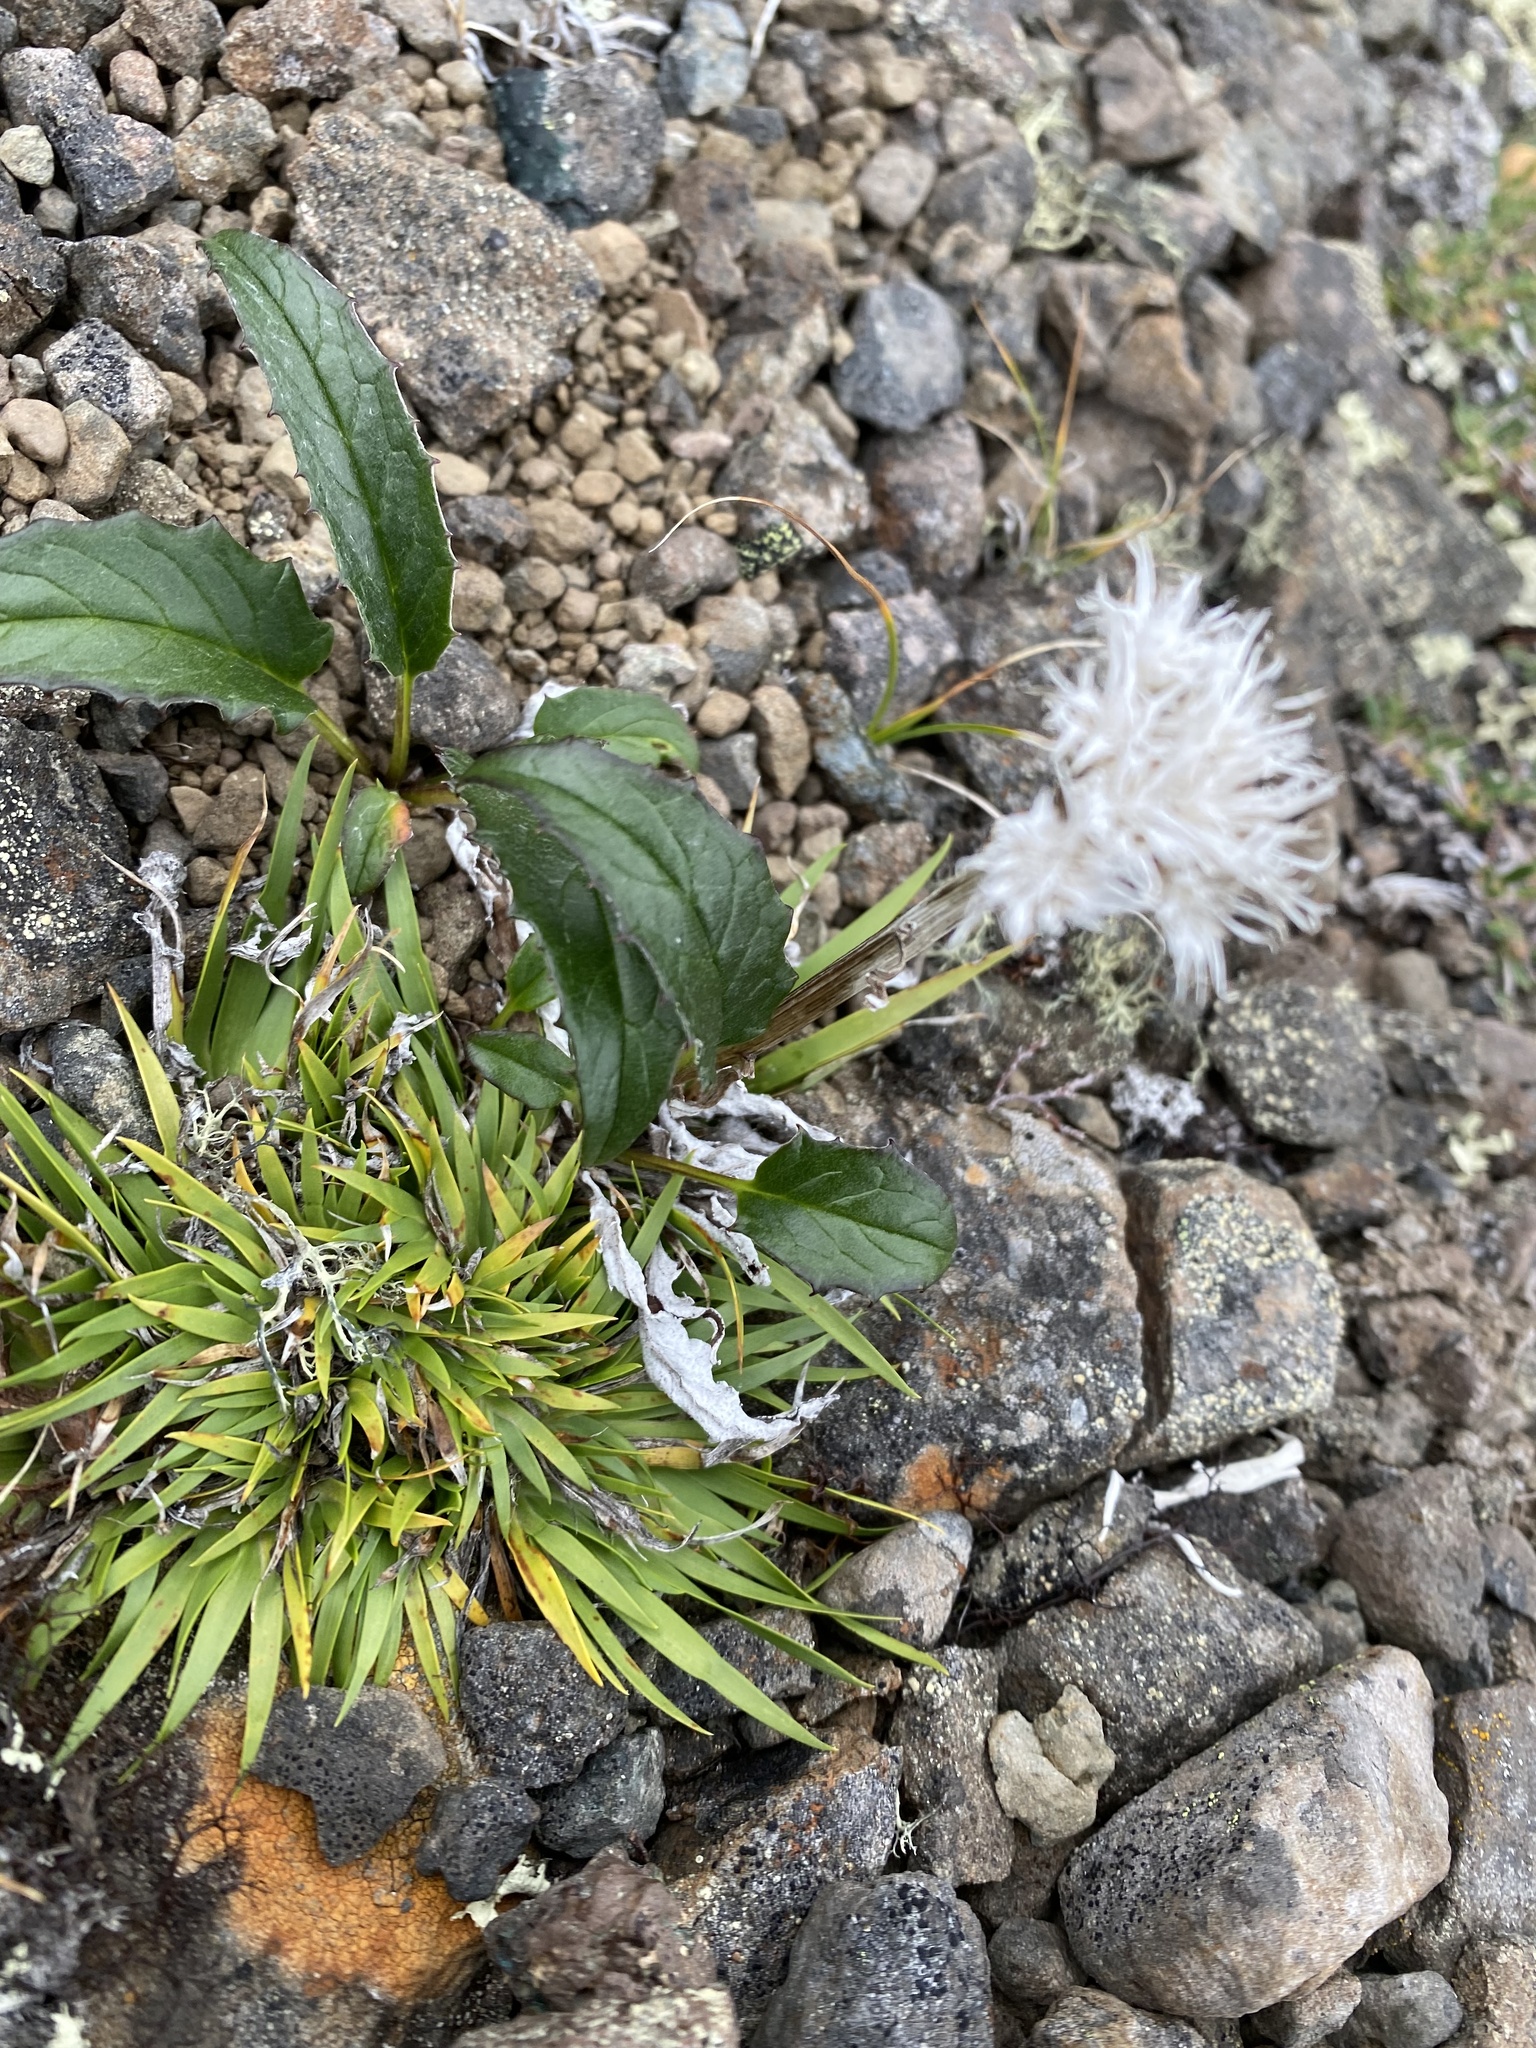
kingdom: Plantae
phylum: Tracheophyta
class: Magnoliopsida
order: Asterales
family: Asteraceae
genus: Saussurea
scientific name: Saussurea tilesii
